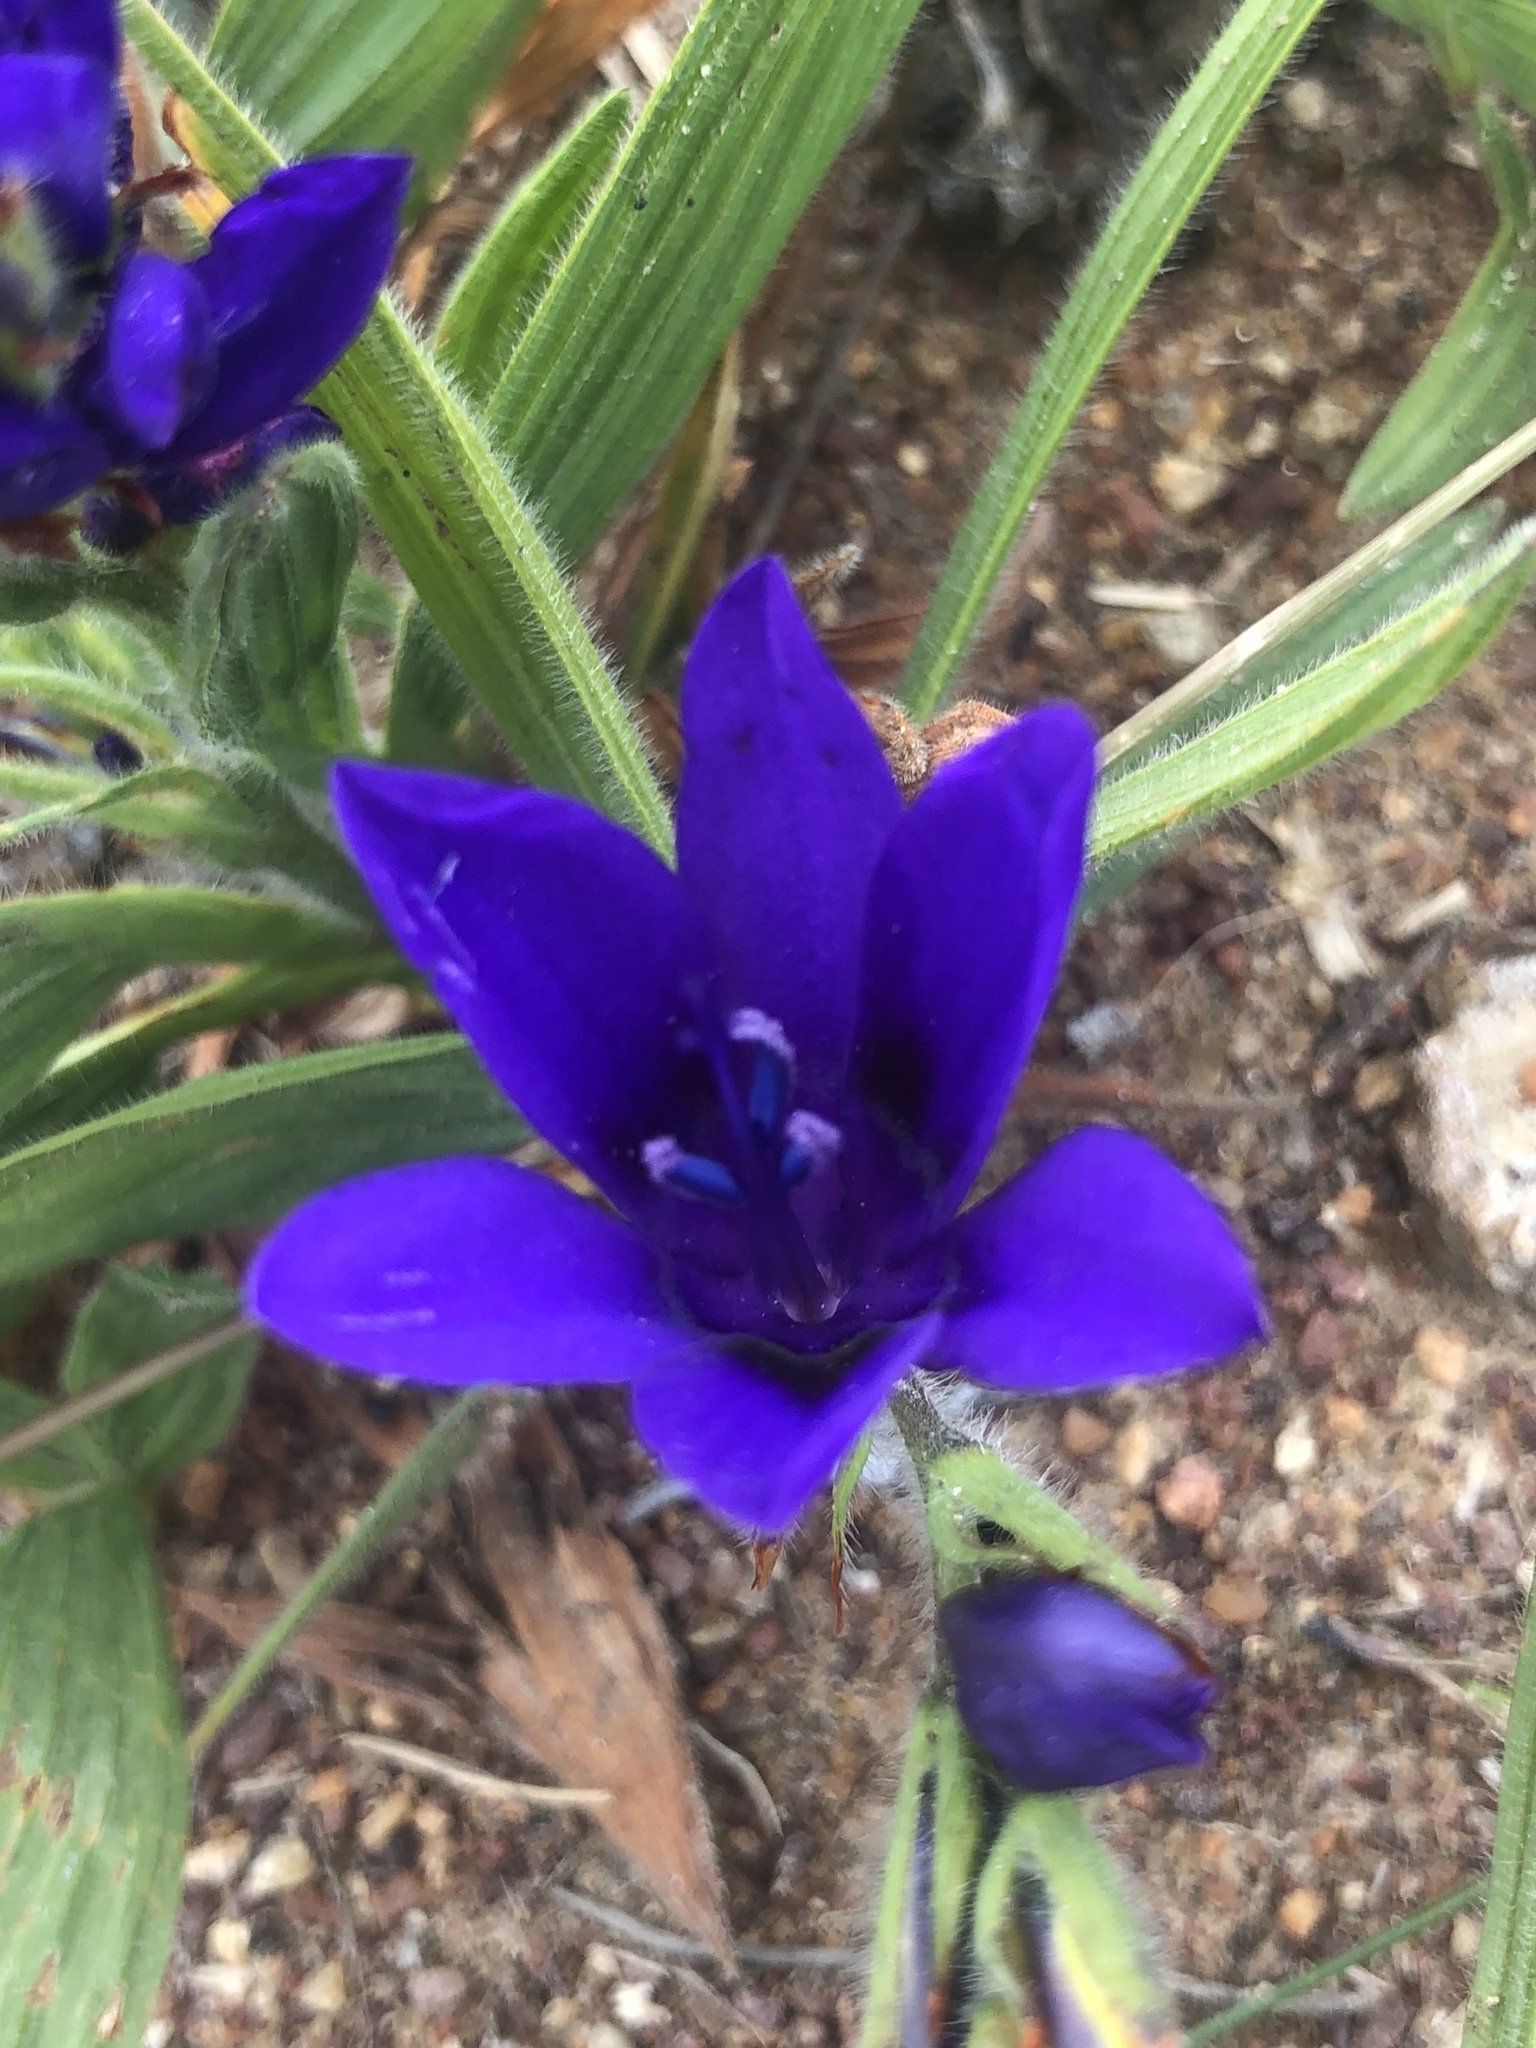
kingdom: Plantae
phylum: Tracheophyta
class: Liliopsida
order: Asparagales
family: Iridaceae
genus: Babiana
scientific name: Babiana angustifolia
